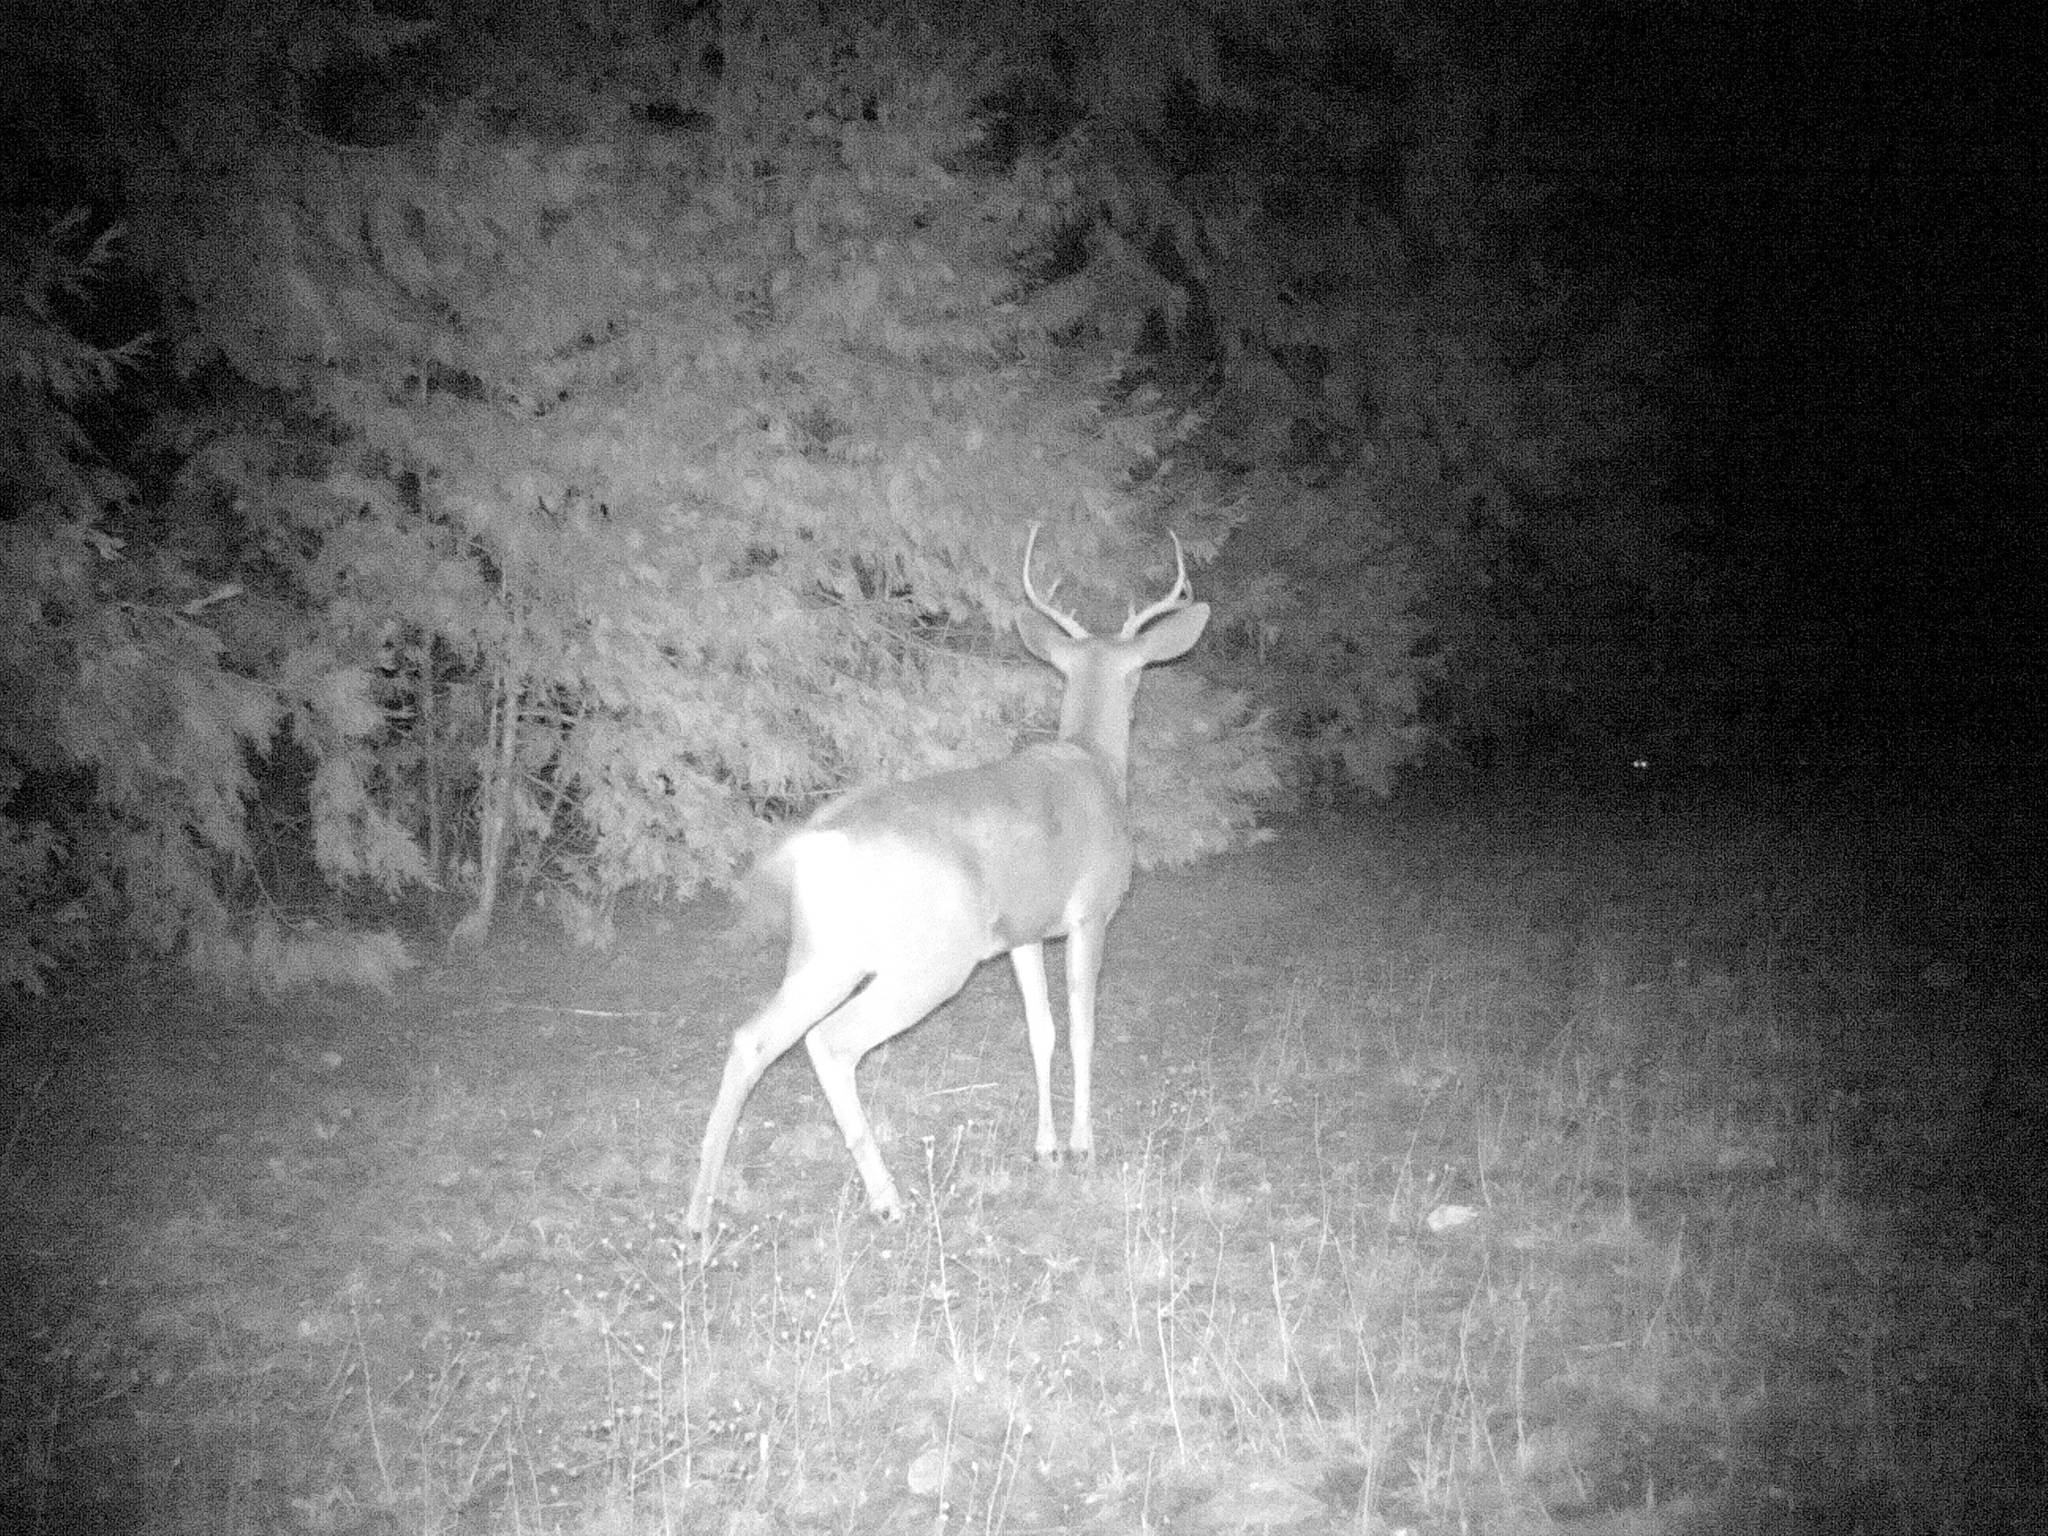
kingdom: Animalia
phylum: Chordata
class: Mammalia
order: Artiodactyla
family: Cervidae
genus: Odocoileus
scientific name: Odocoileus hemionus
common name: Mule deer
